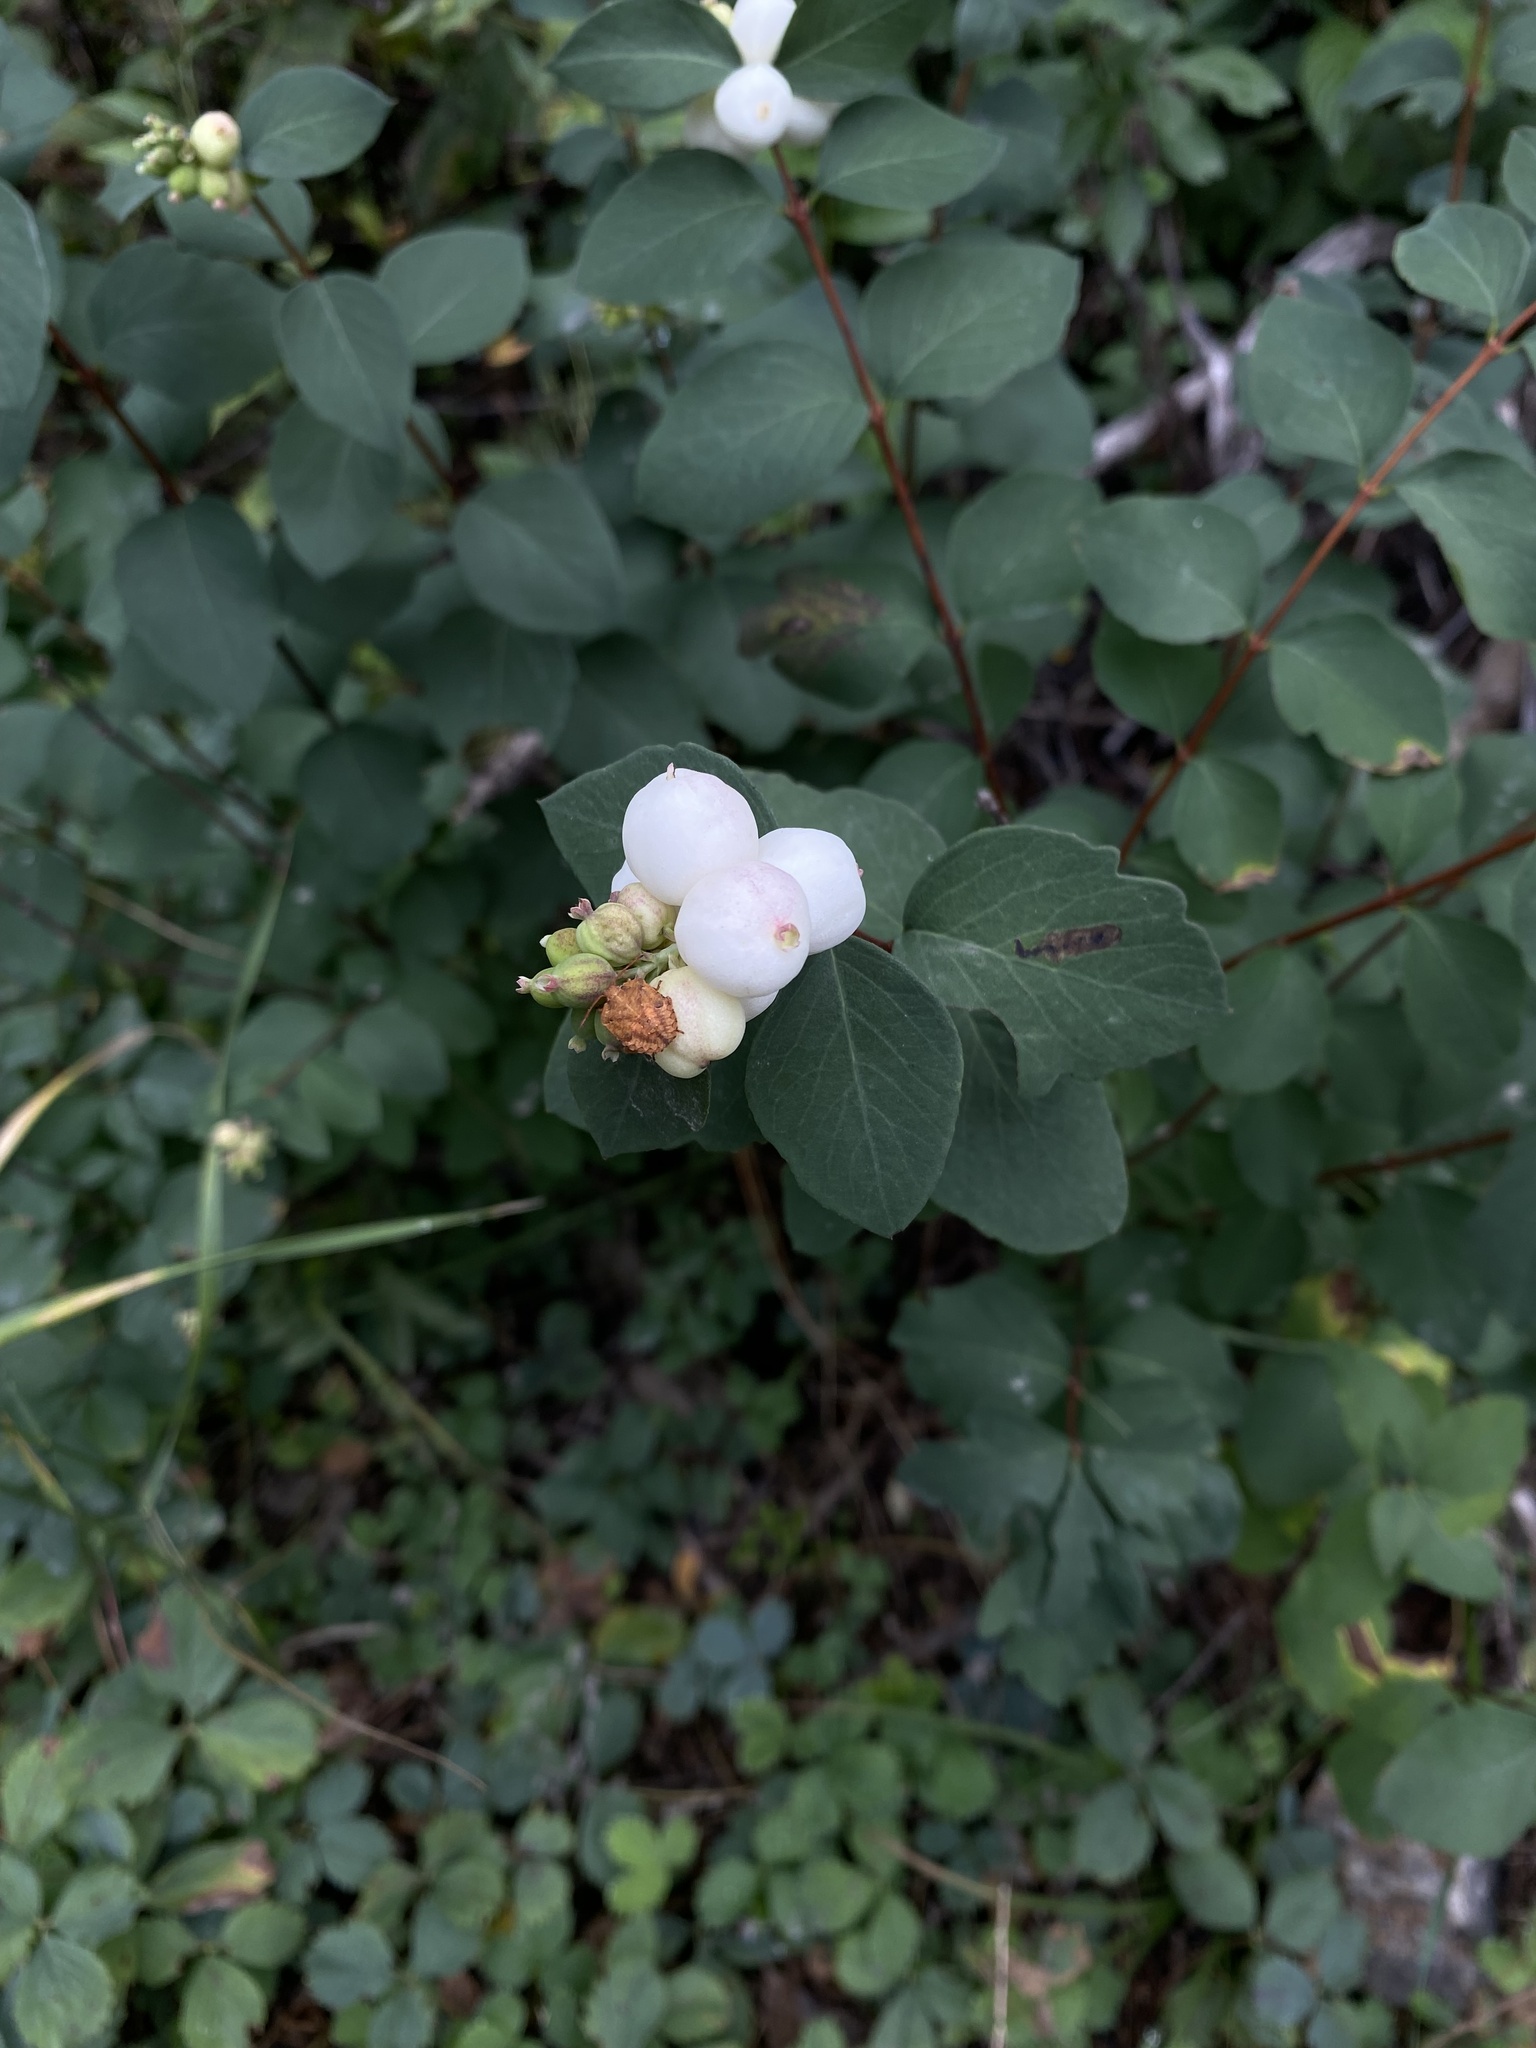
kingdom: Plantae
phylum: Tracheophyta
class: Magnoliopsida
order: Dipsacales
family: Caprifoliaceae
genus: Symphoricarpos
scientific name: Symphoricarpos albus
